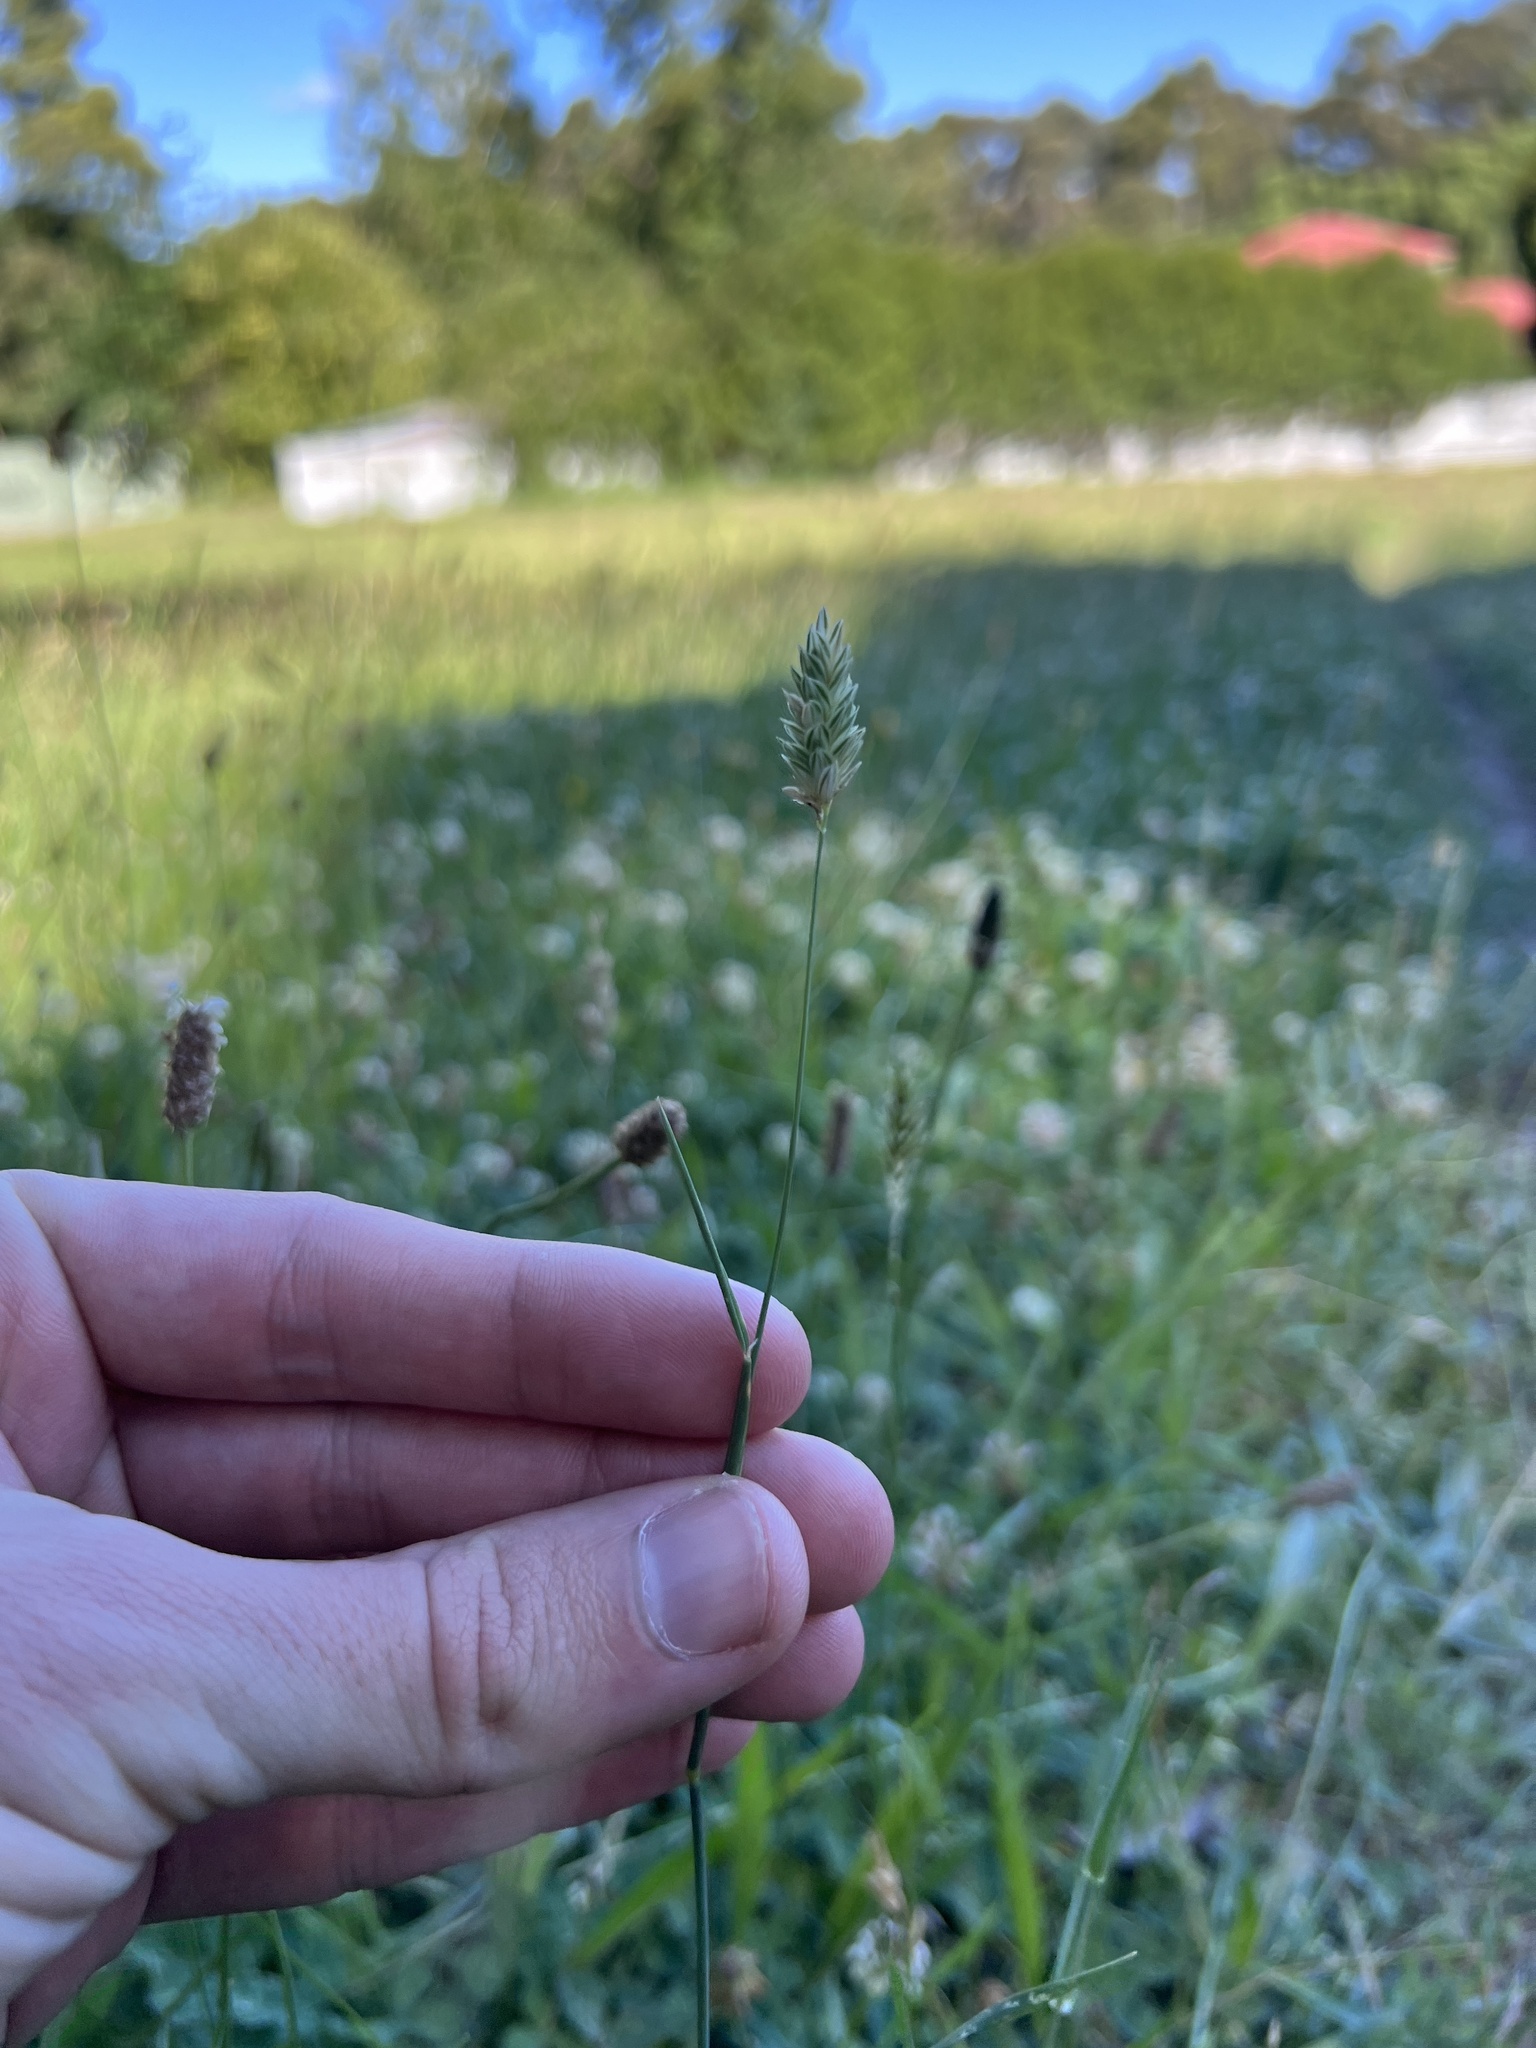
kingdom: Plantae
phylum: Tracheophyta
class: Liliopsida
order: Poales
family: Poaceae
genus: Phalaris
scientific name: Phalaris canariensis
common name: Annual canarygrass
